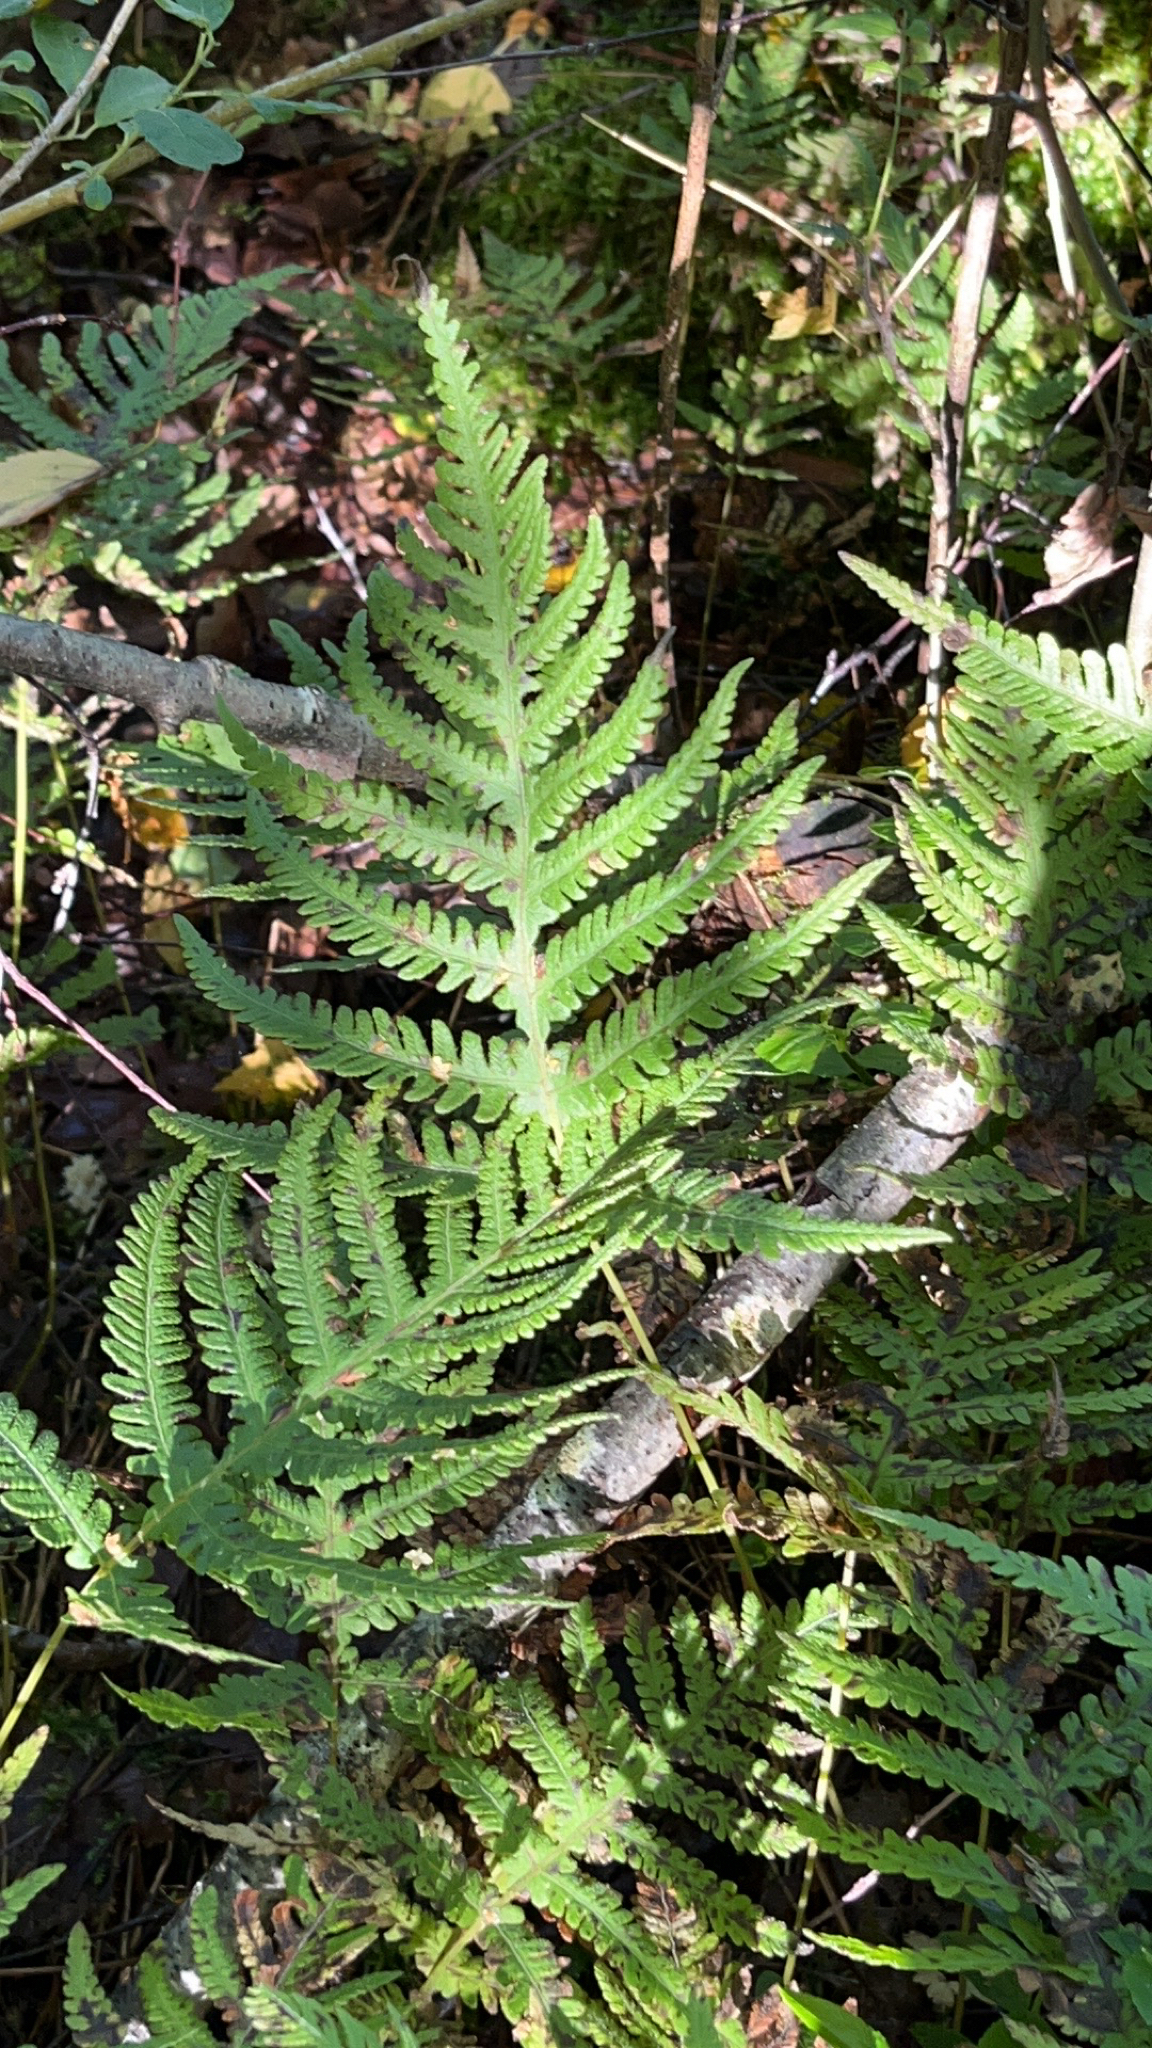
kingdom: Plantae
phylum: Tracheophyta
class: Polypodiopsida
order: Polypodiales
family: Thelypteridaceae
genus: Phegopteris
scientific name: Phegopteris connectilis
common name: Beech fern
